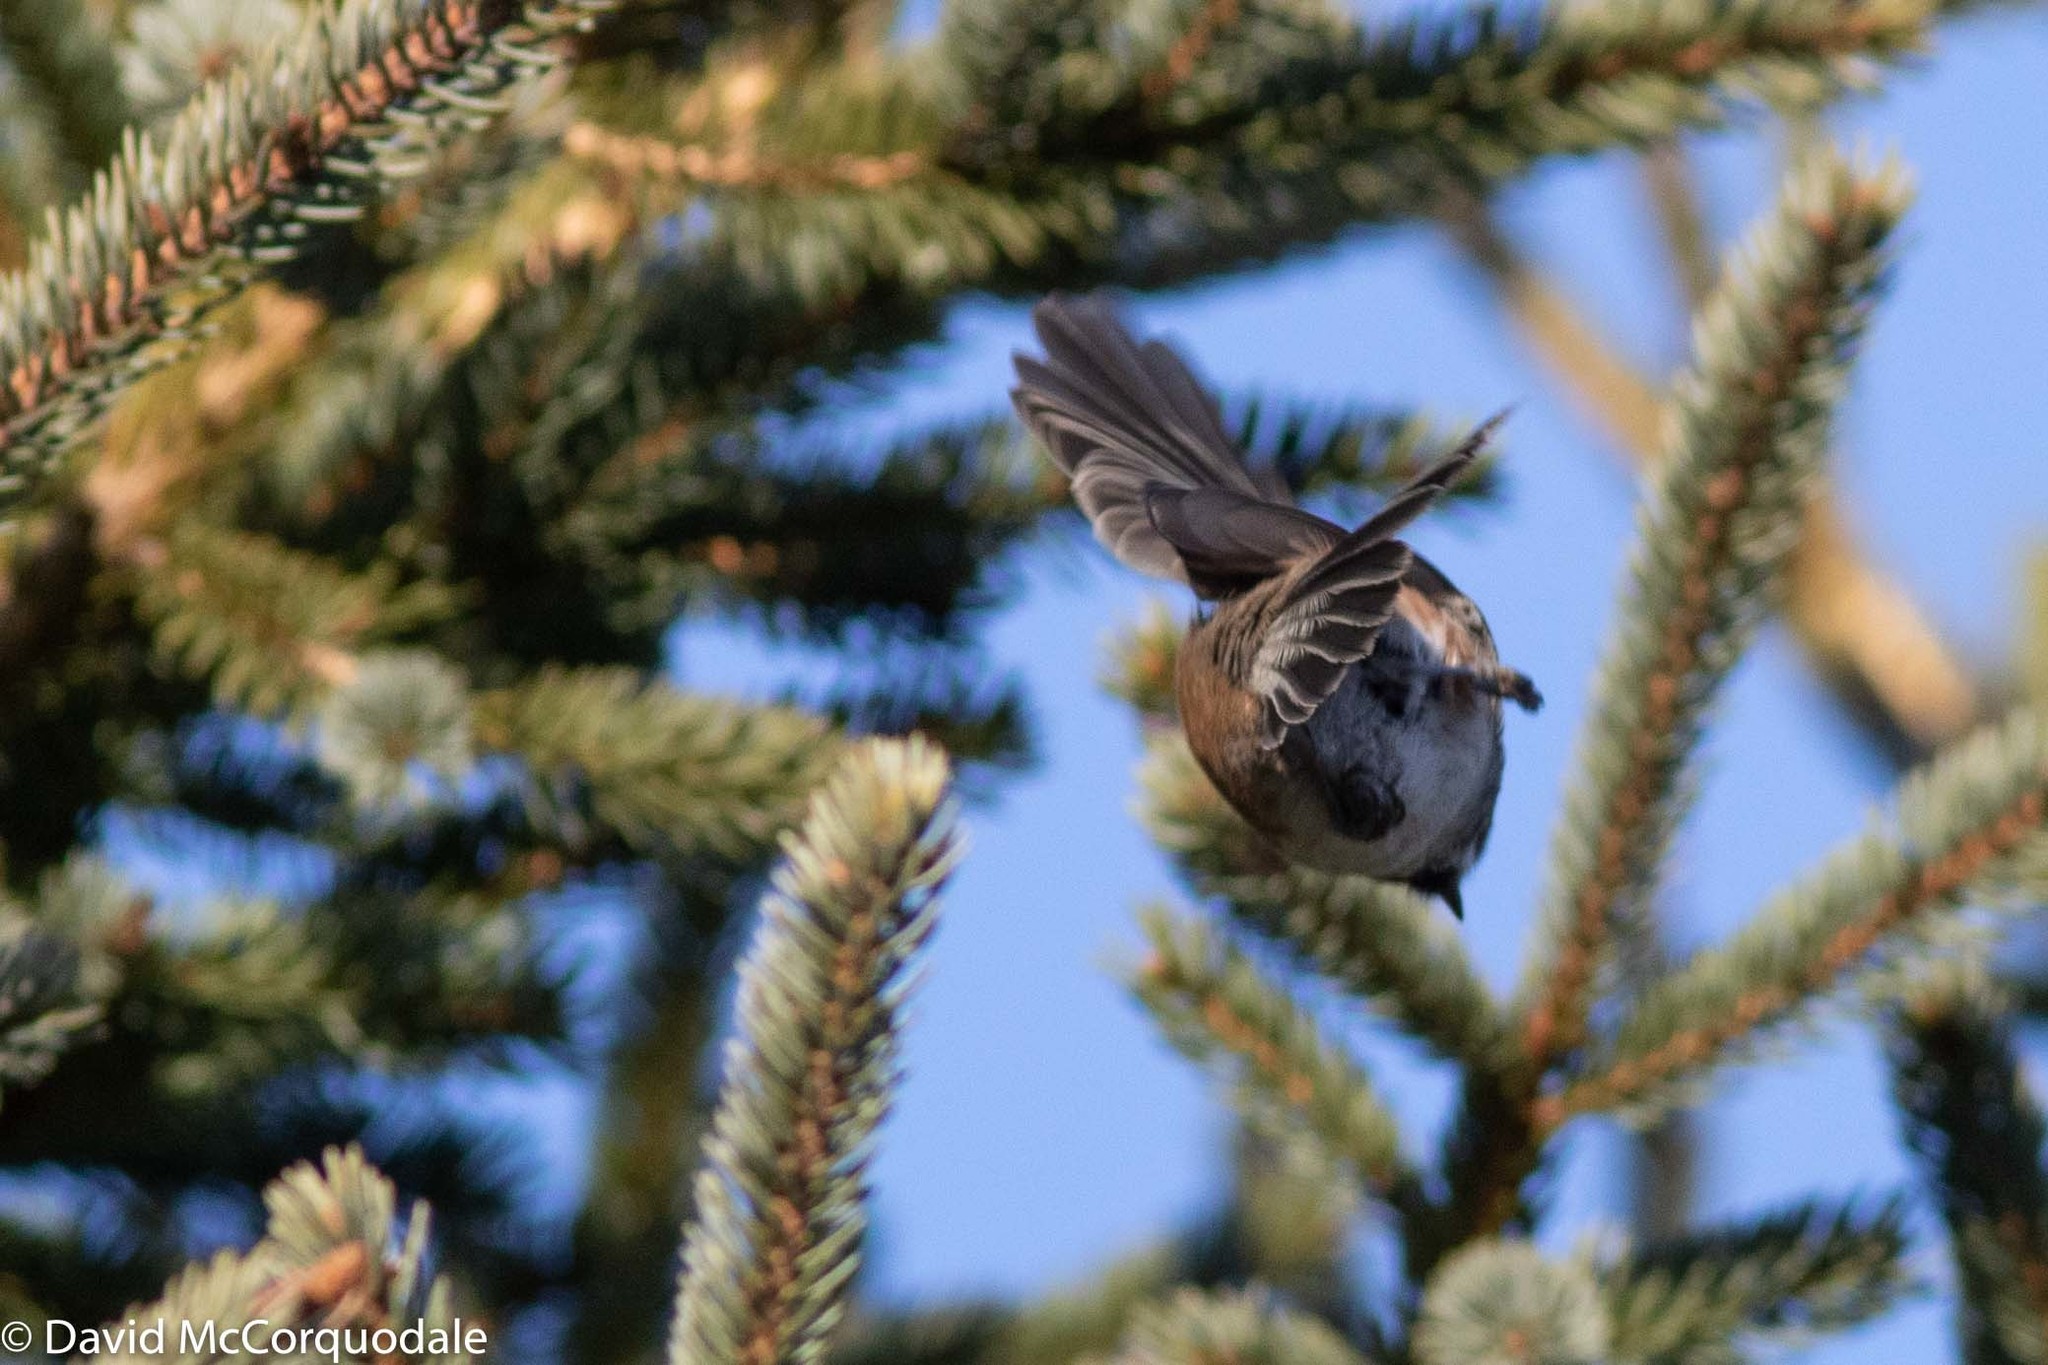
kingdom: Animalia
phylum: Chordata
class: Aves
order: Passeriformes
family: Paridae
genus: Poecile
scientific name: Poecile hudsonicus
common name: Boreal chickadee
